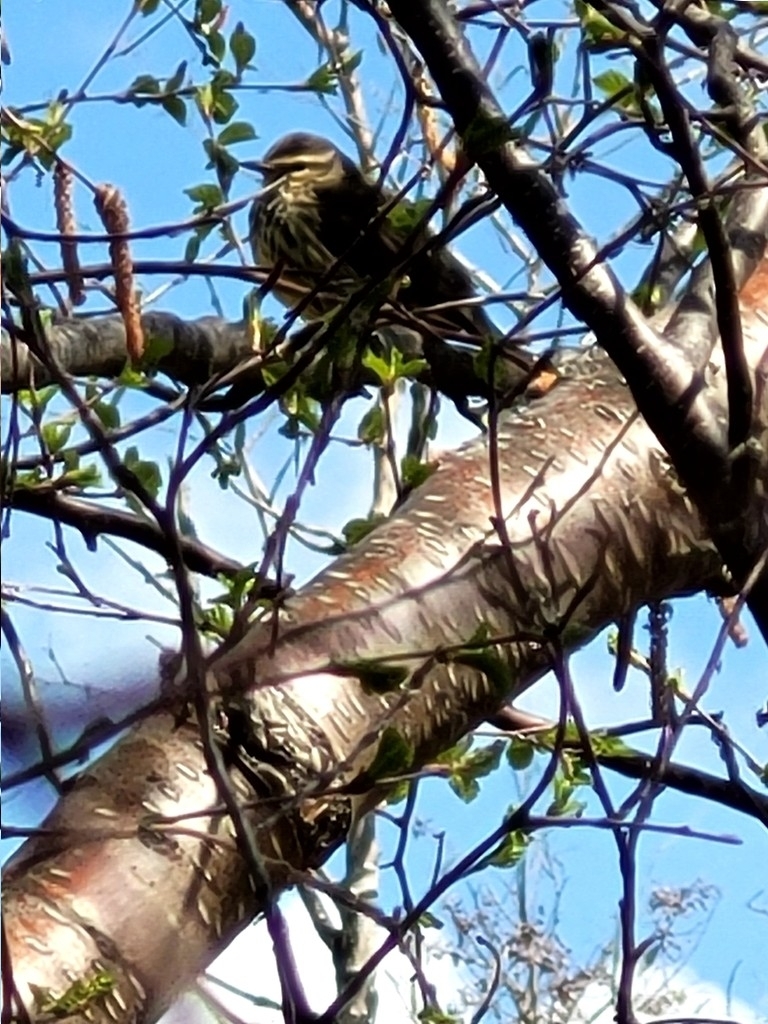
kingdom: Animalia
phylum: Chordata
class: Aves
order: Passeriformes
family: Parulidae
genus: Parkesia
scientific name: Parkesia noveboracensis
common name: Northern waterthrush
